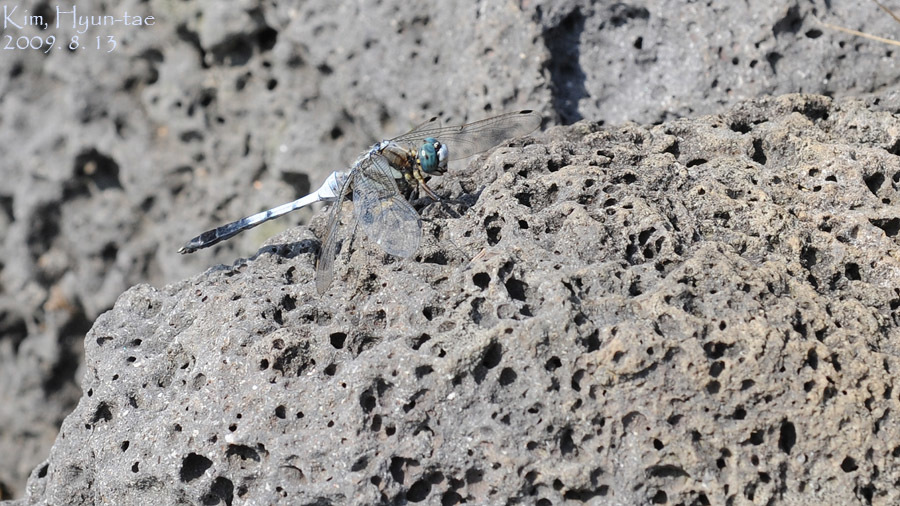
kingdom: Animalia
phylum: Arthropoda
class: Insecta
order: Odonata
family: Libellulidae
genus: Orthetrum
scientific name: Orthetrum albistylum
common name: White-tailed skimmer
